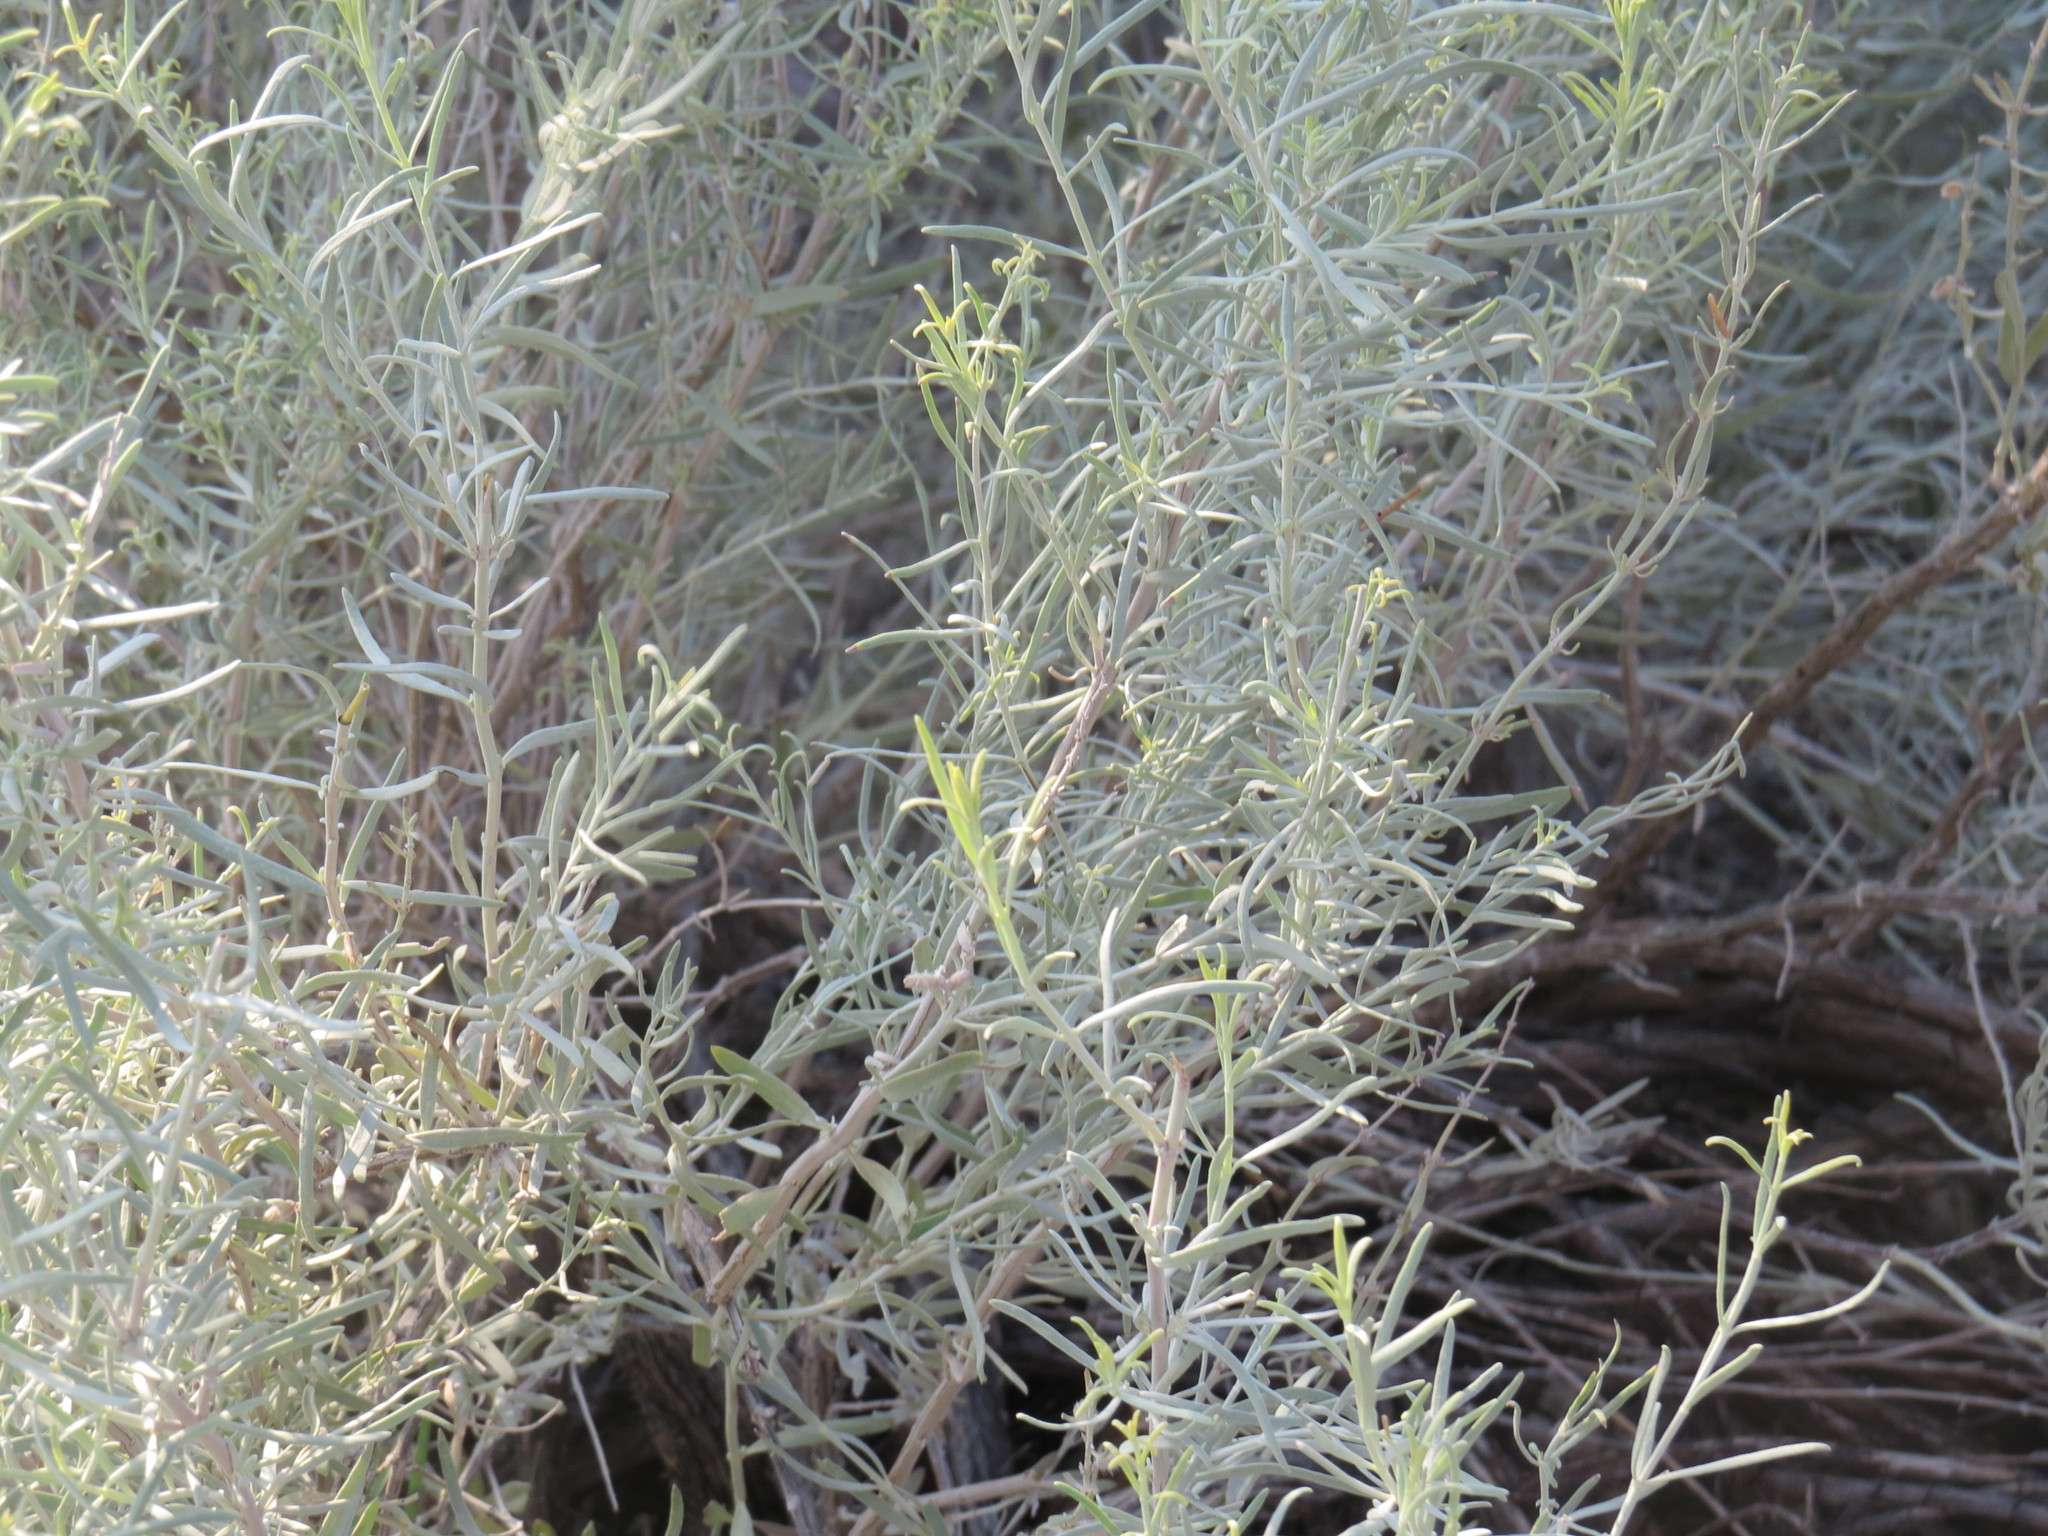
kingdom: Plantae
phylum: Tracheophyta
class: Magnoliopsida
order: Lamiales
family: Lamiaceae
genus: Poliomintha
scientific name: Poliomintha incana
